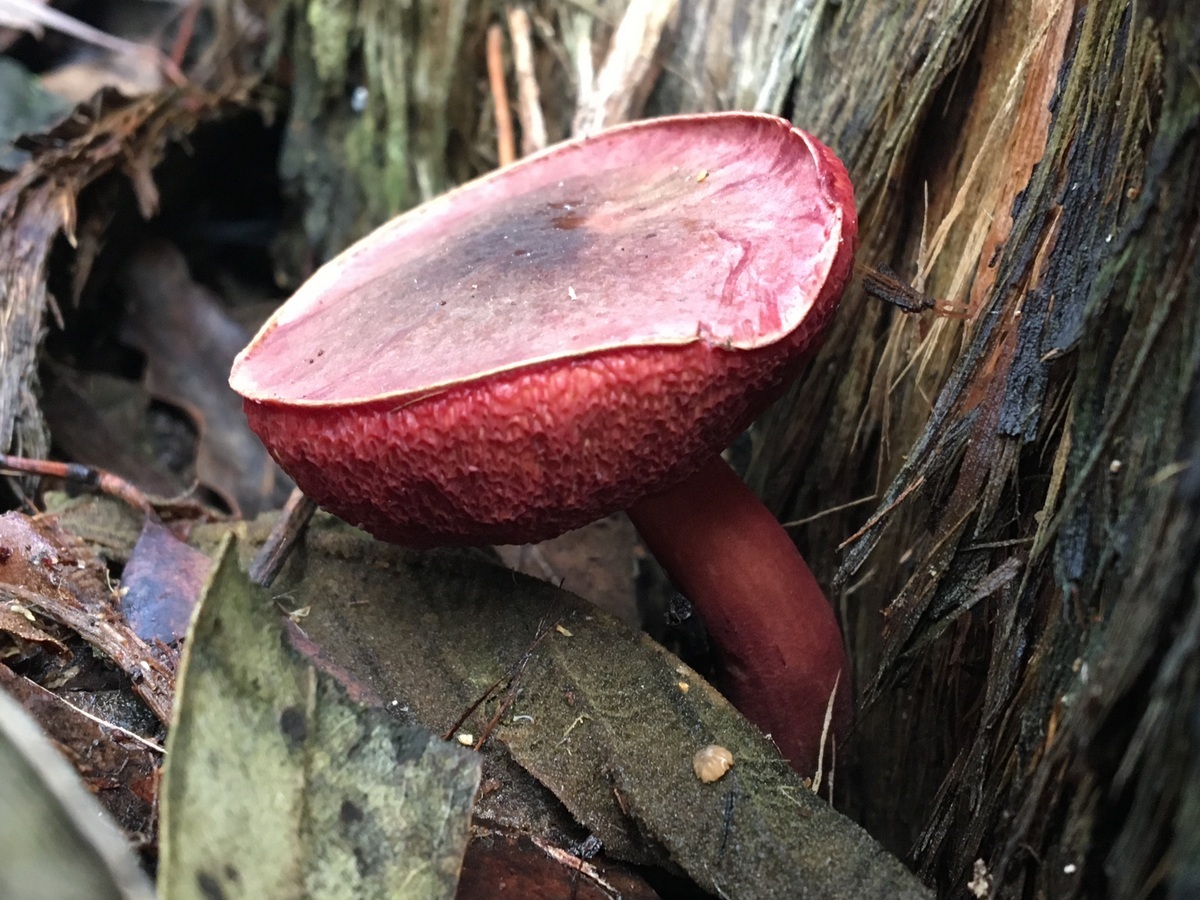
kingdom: Fungi
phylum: Basidiomycota
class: Agaricomycetes
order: Boletales
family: Boletaceae
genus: Boletus
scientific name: Boletus barragensis
